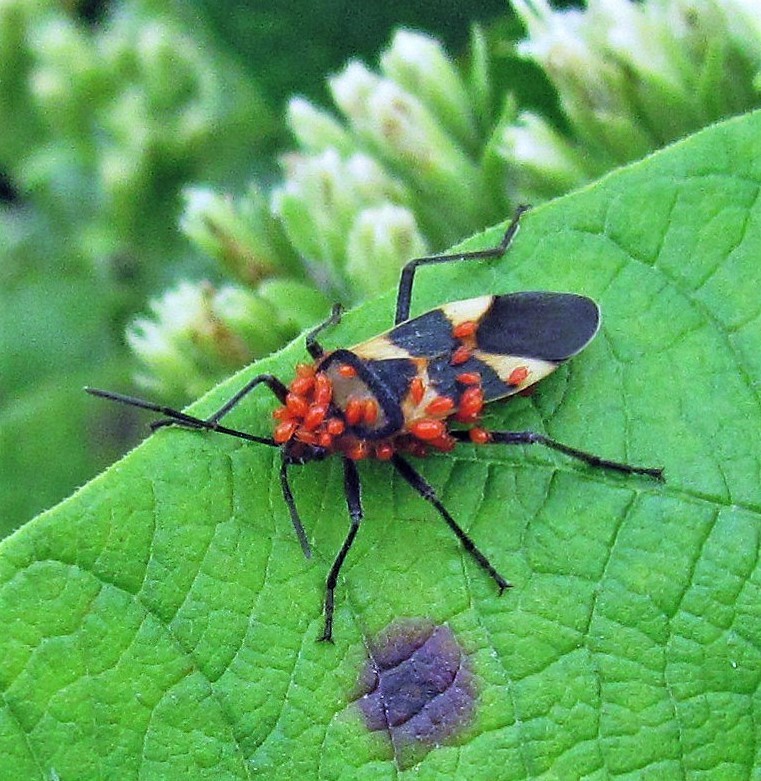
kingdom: Animalia
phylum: Arthropoda
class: Insecta
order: Hemiptera
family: Lygaeidae
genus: Oncopeltus
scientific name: Oncopeltus unifasciatellus
